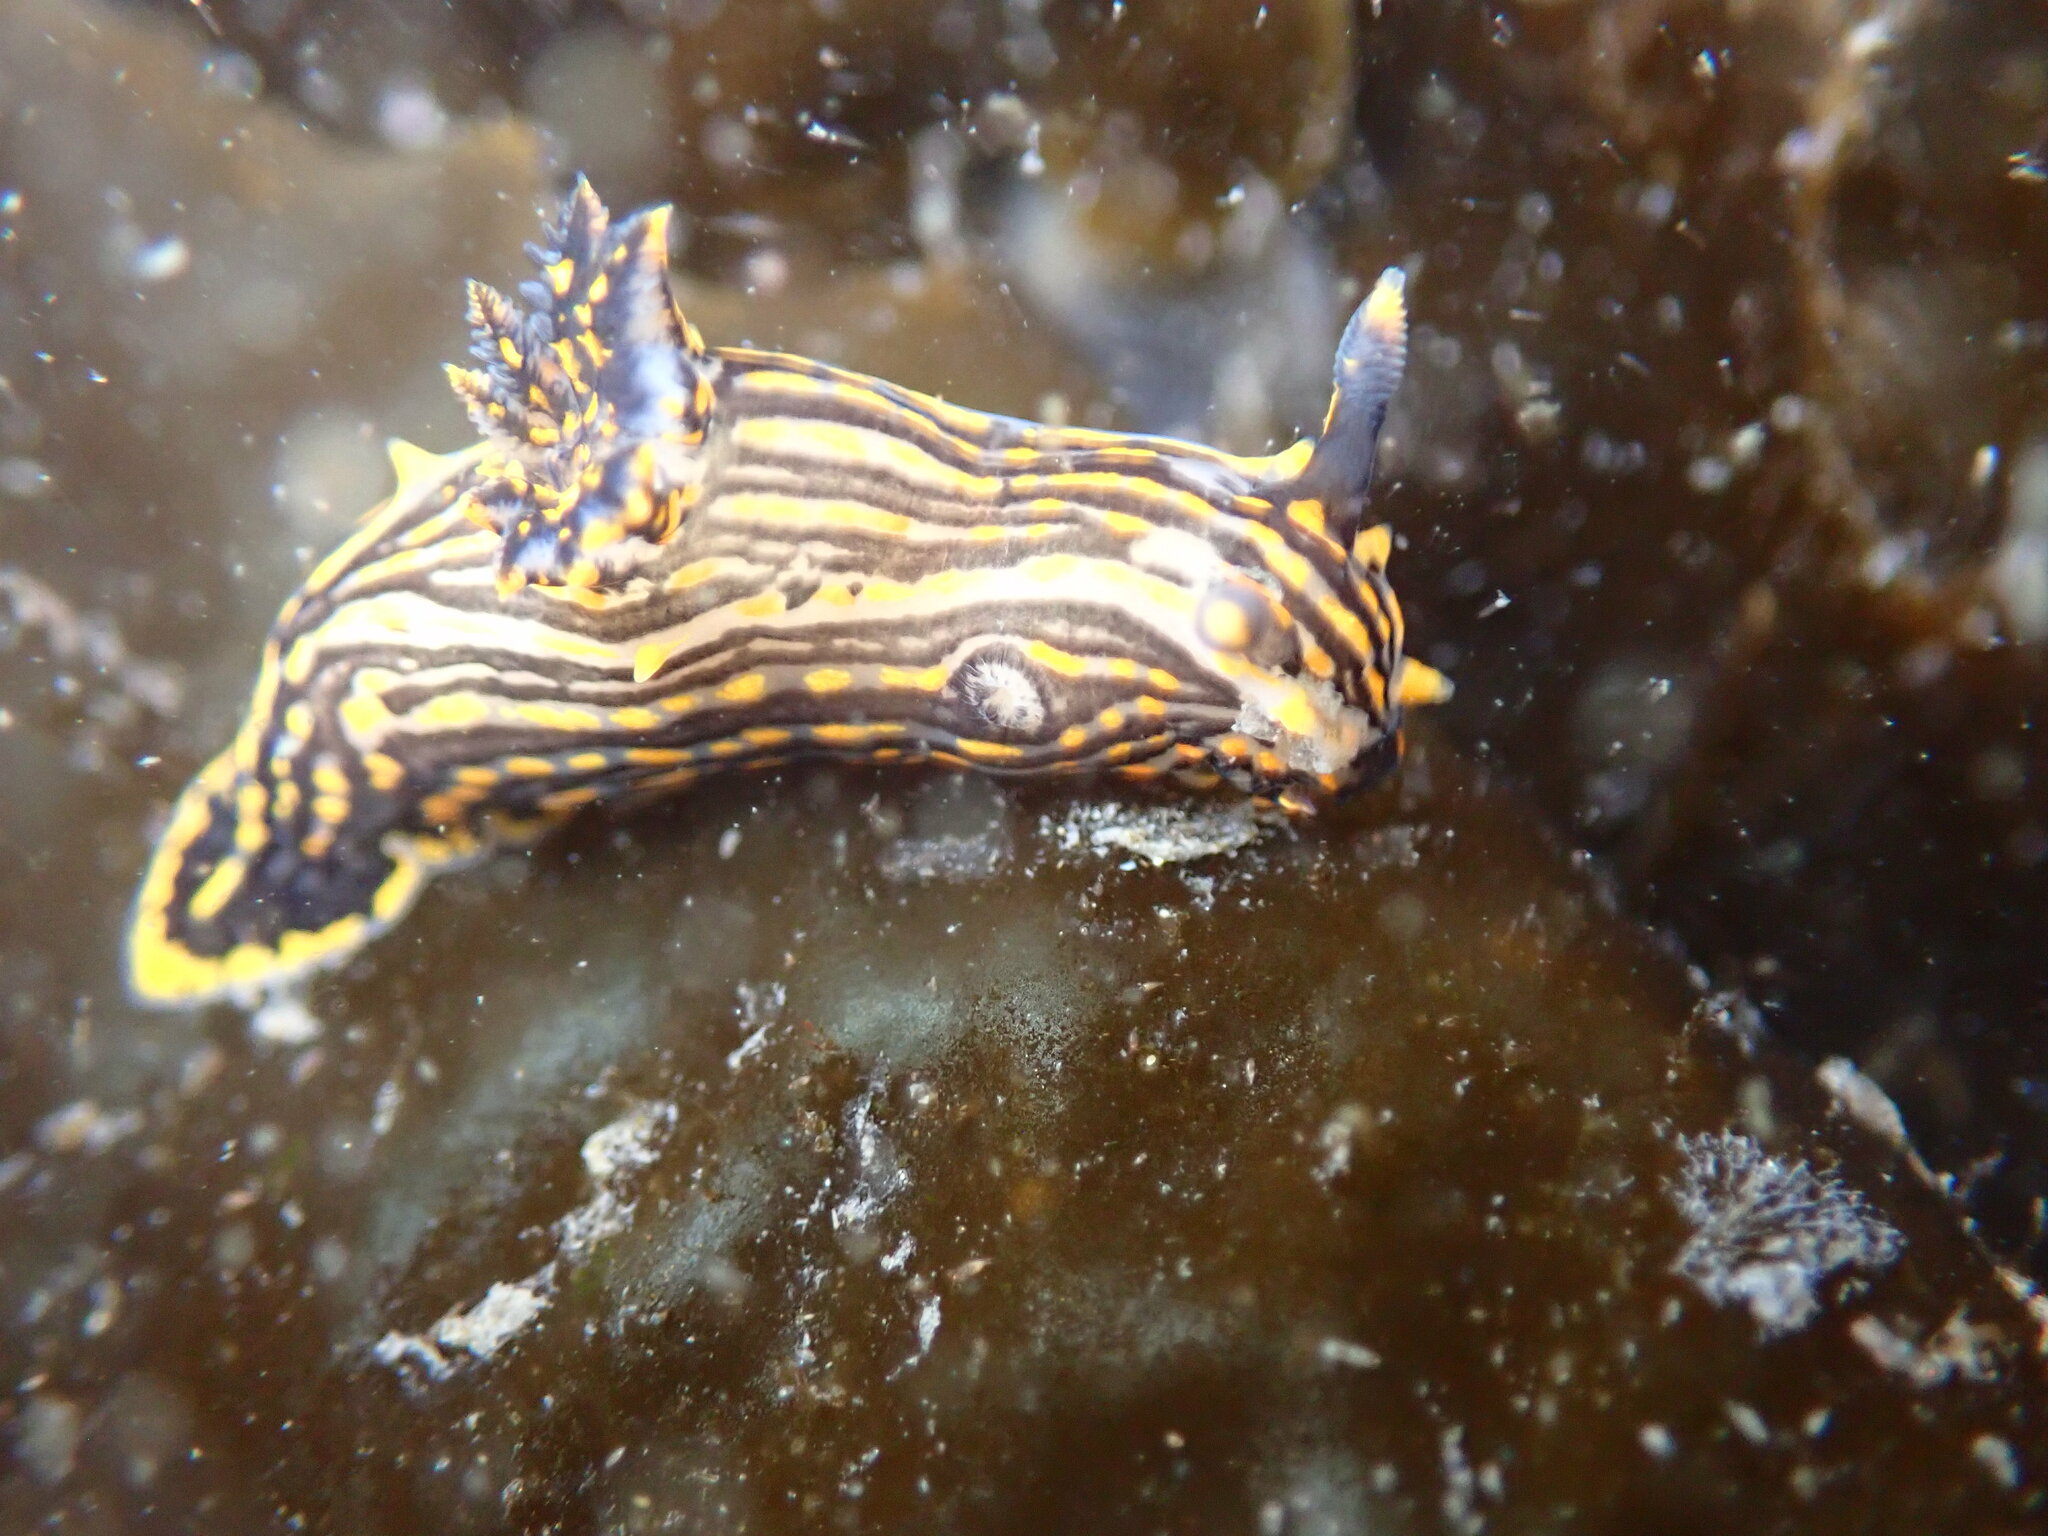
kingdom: Animalia
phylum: Mollusca
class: Gastropoda
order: Nudibranchia
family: Polyceridae
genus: Polycera
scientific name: Polycera atra
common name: Orange-spike polycera
